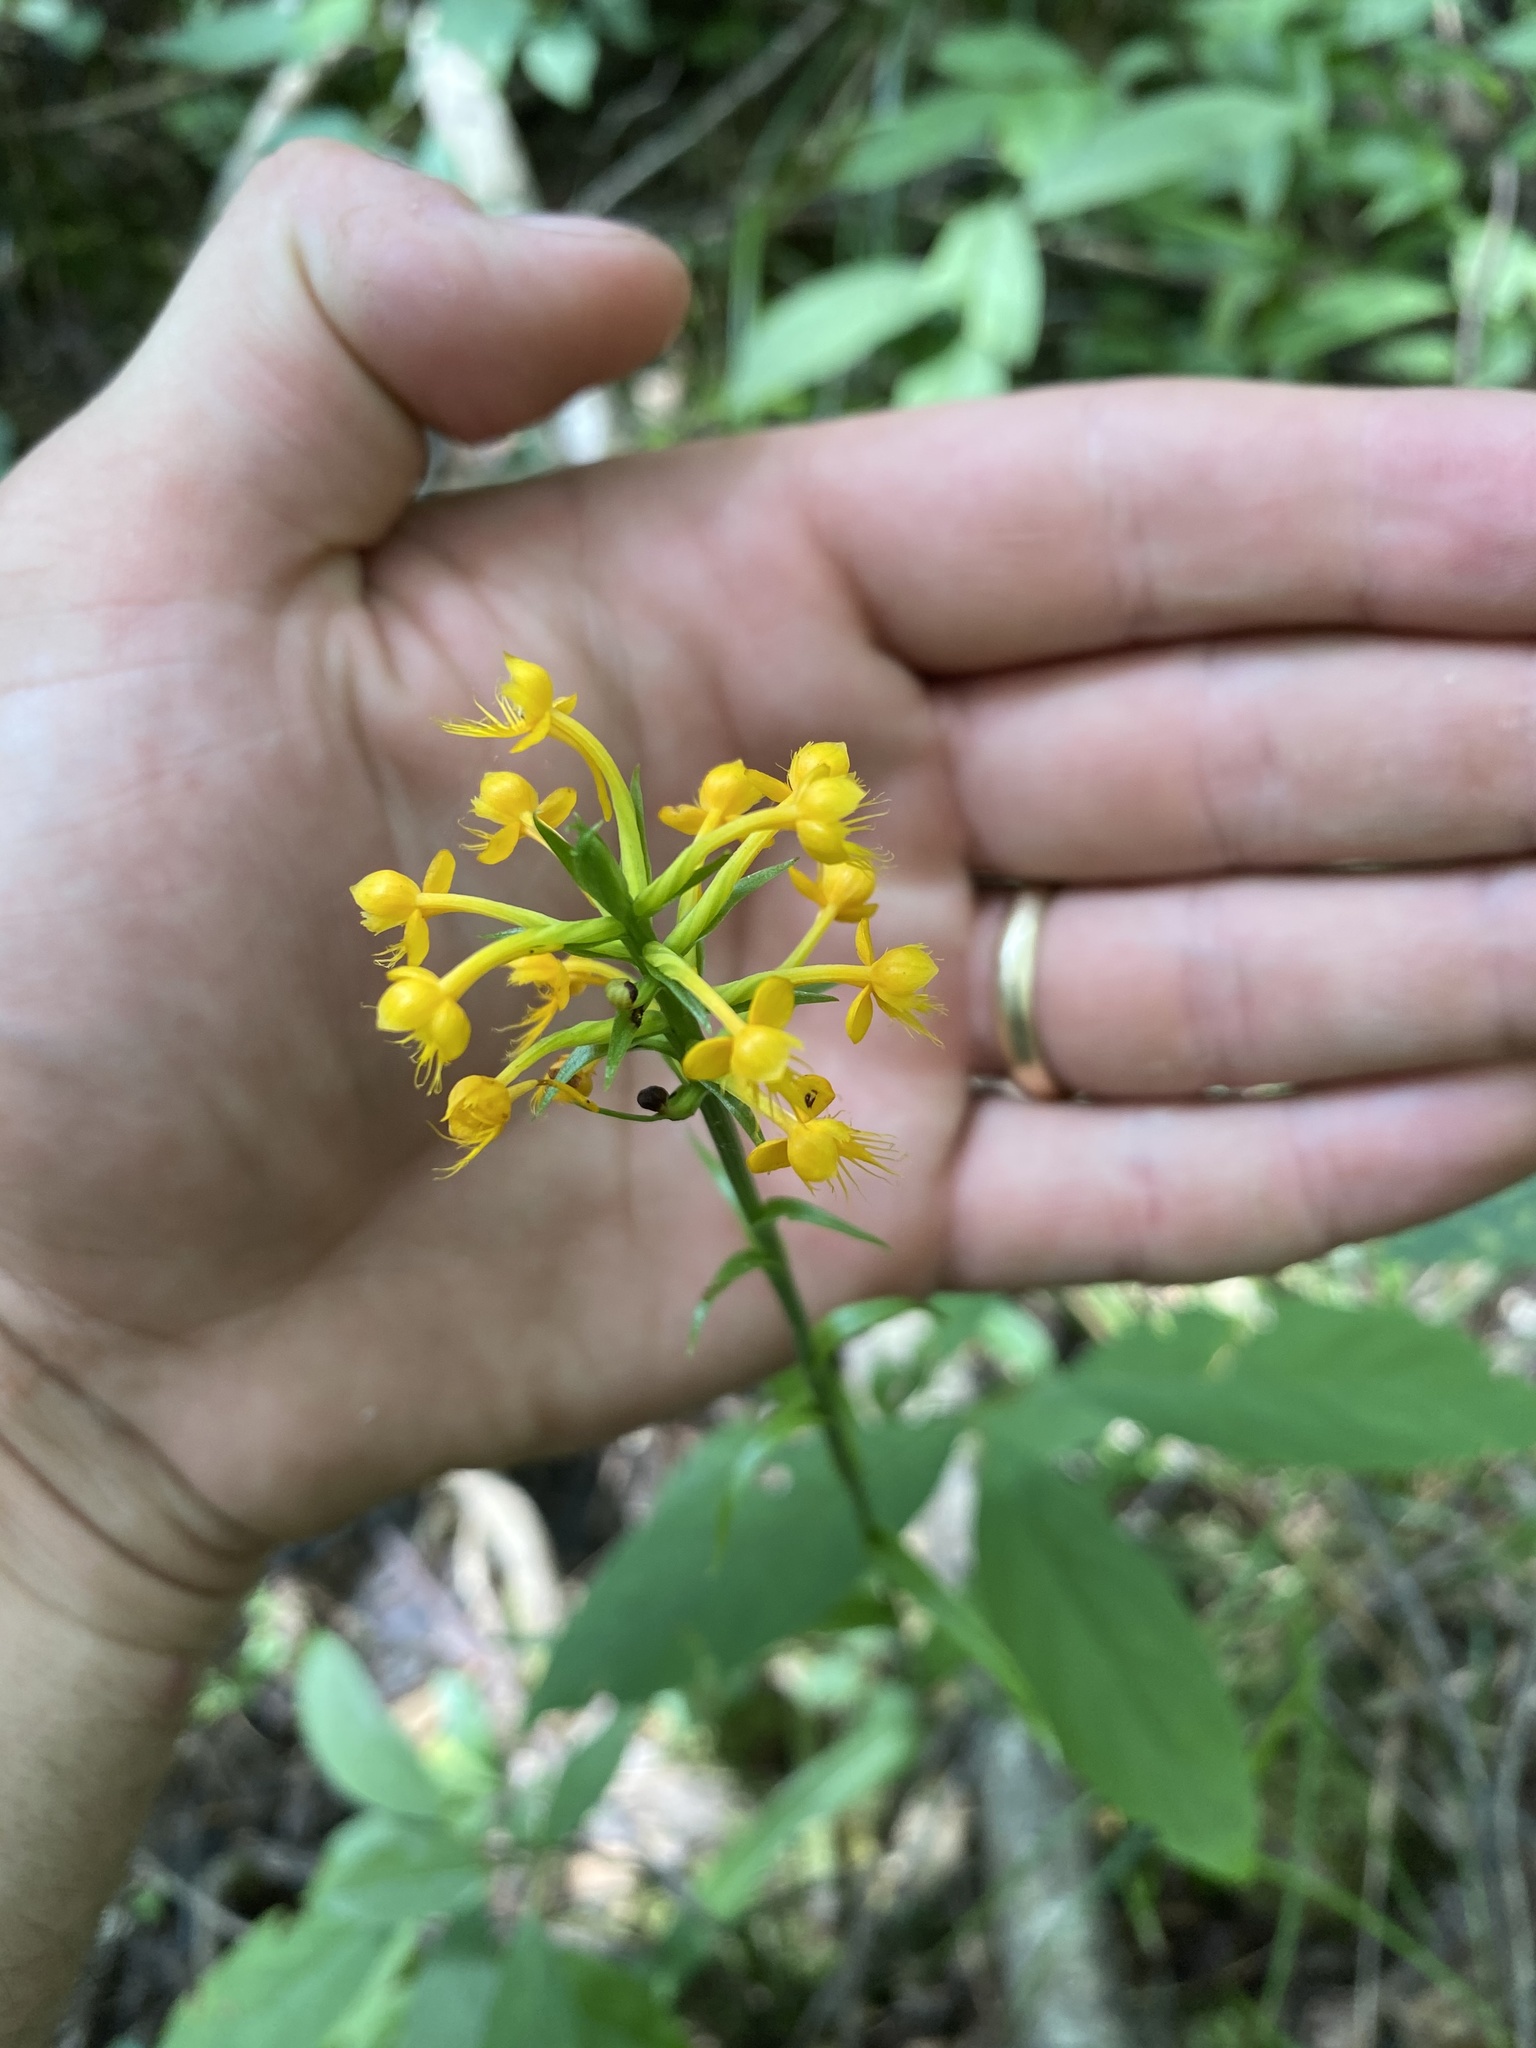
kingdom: Plantae
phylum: Tracheophyta
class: Liliopsida
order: Asparagales
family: Orchidaceae
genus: Platanthera
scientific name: Platanthera cristata
